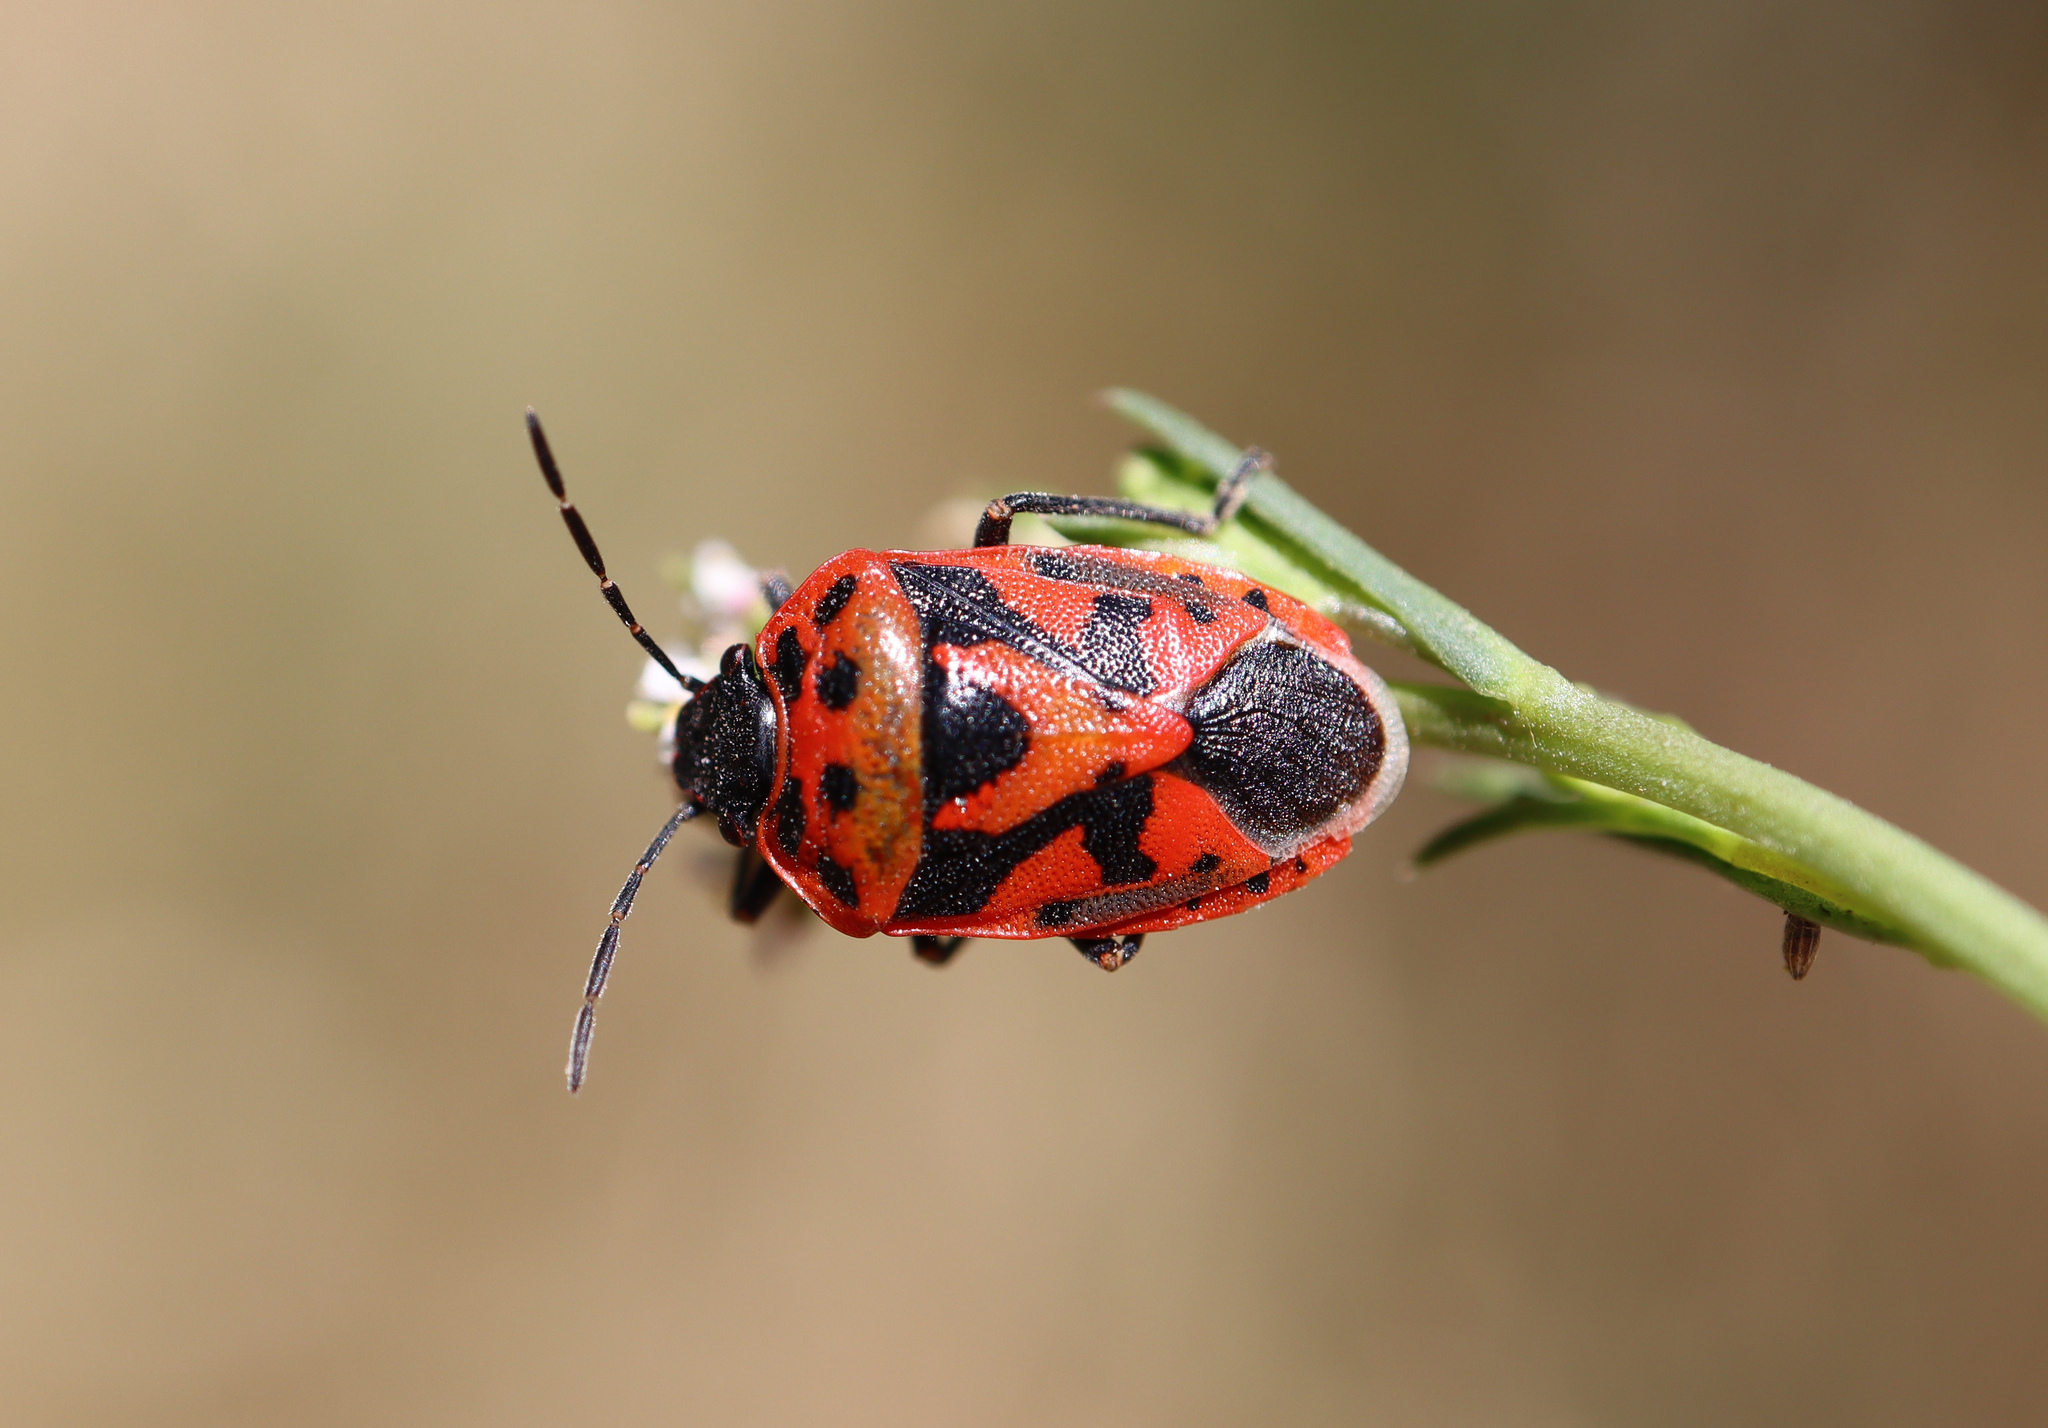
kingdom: Animalia
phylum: Arthropoda
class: Insecta
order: Hemiptera
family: Pentatomidae
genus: Eurydema
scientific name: Eurydema ornata
